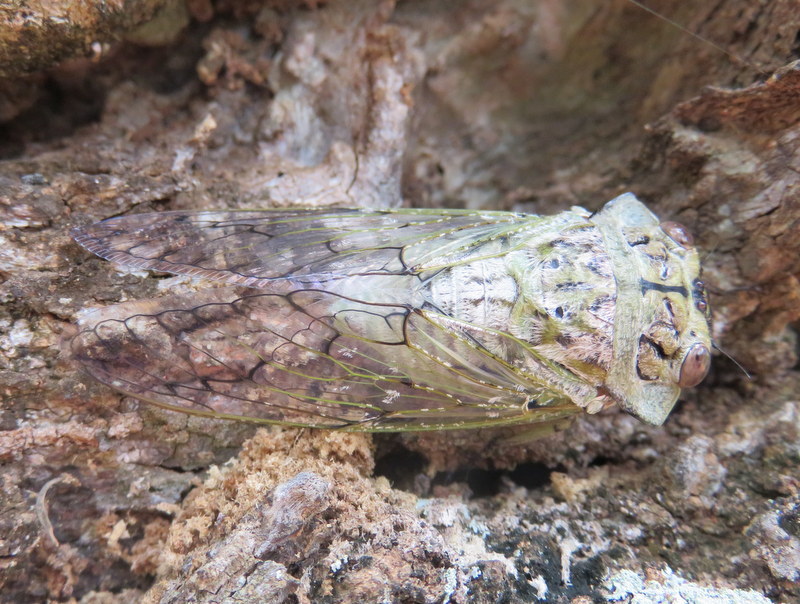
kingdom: Animalia
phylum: Arthropoda
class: Insecta
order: Hemiptera
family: Cicadidae
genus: Oxypleura
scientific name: Oxypleura lenihani
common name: Coastal sharpcollar cicada
